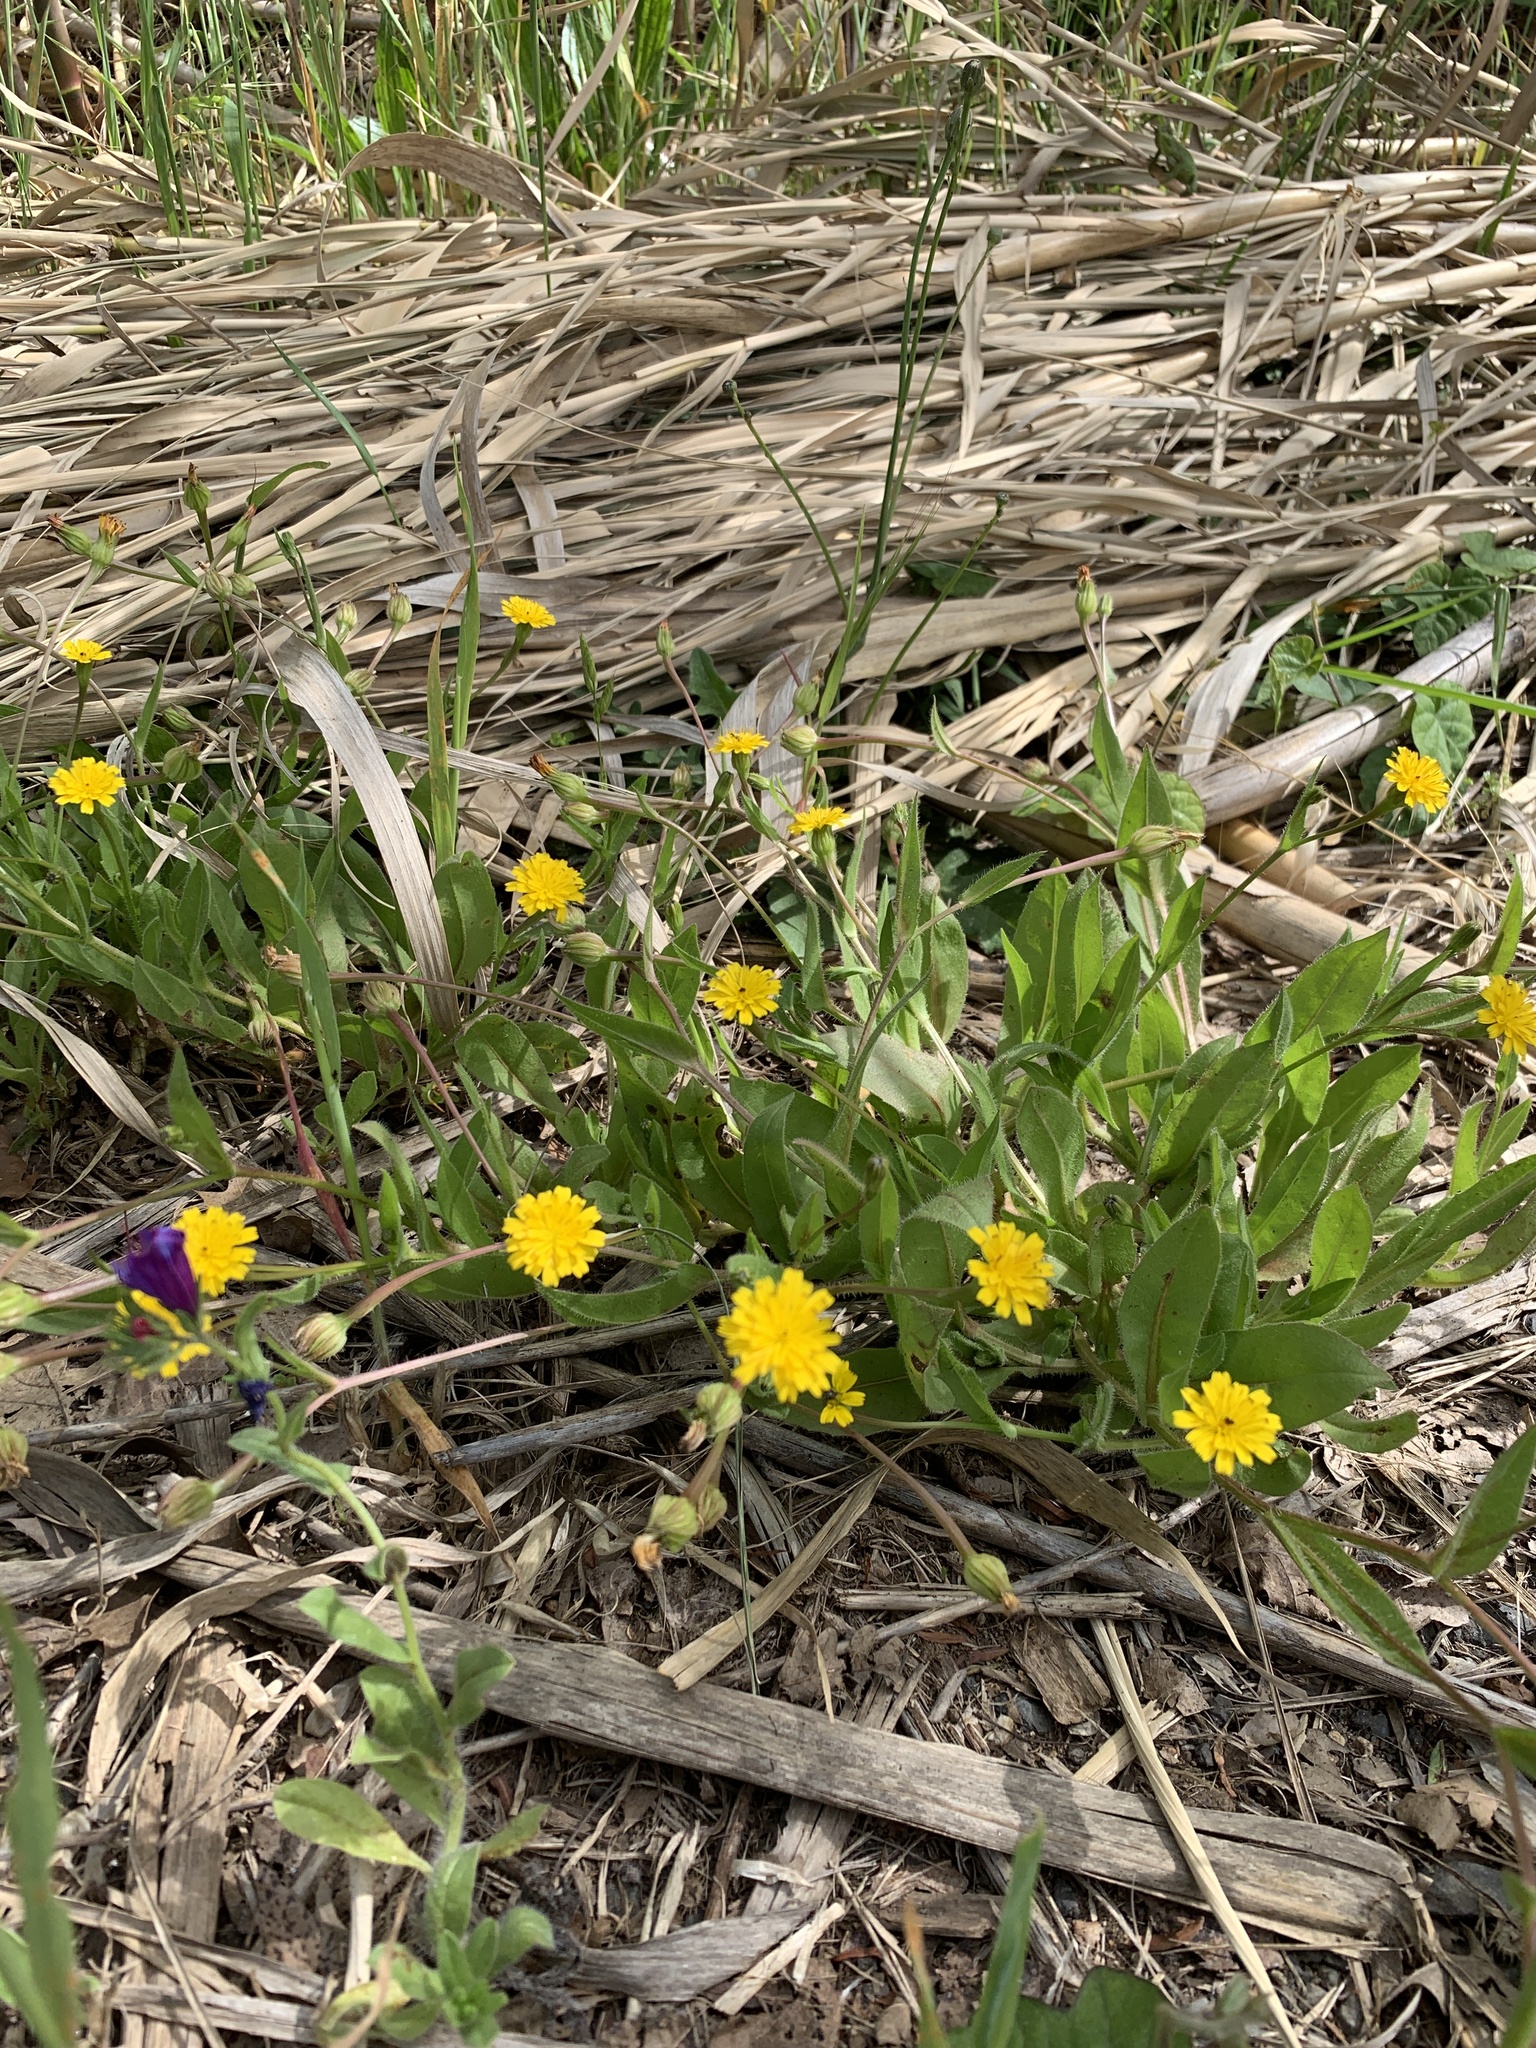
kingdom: Plantae
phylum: Tracheophyta
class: Magnoliopsida
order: Asterales
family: Asteraceae
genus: Hedypnois
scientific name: Hedypnois rhagadioloides
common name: Cretan weed
